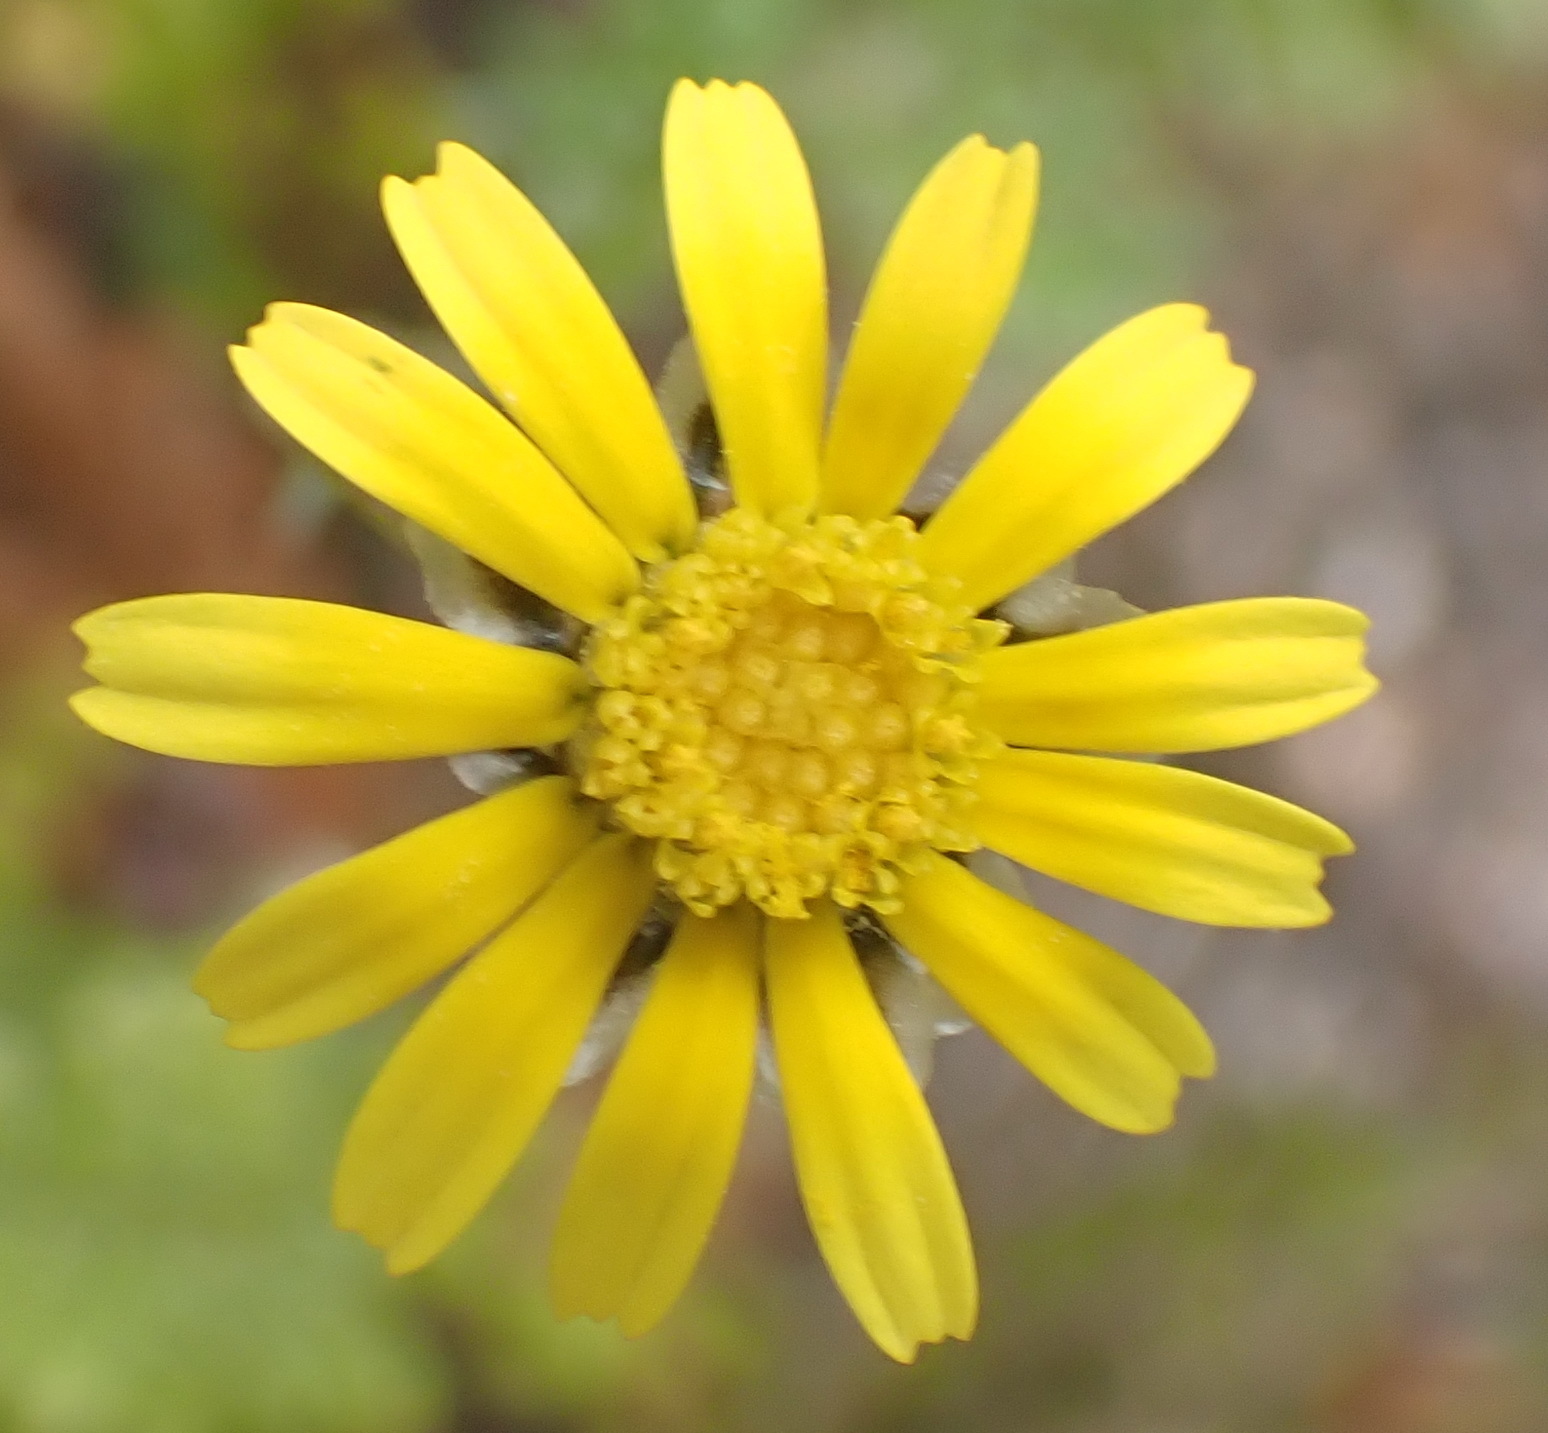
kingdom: Plantae
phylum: Tracheophyta
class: Magnoliopsida
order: Asterales
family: Asteraceae
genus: Ursinia
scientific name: Ursinia anthemoides
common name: Ursinia
